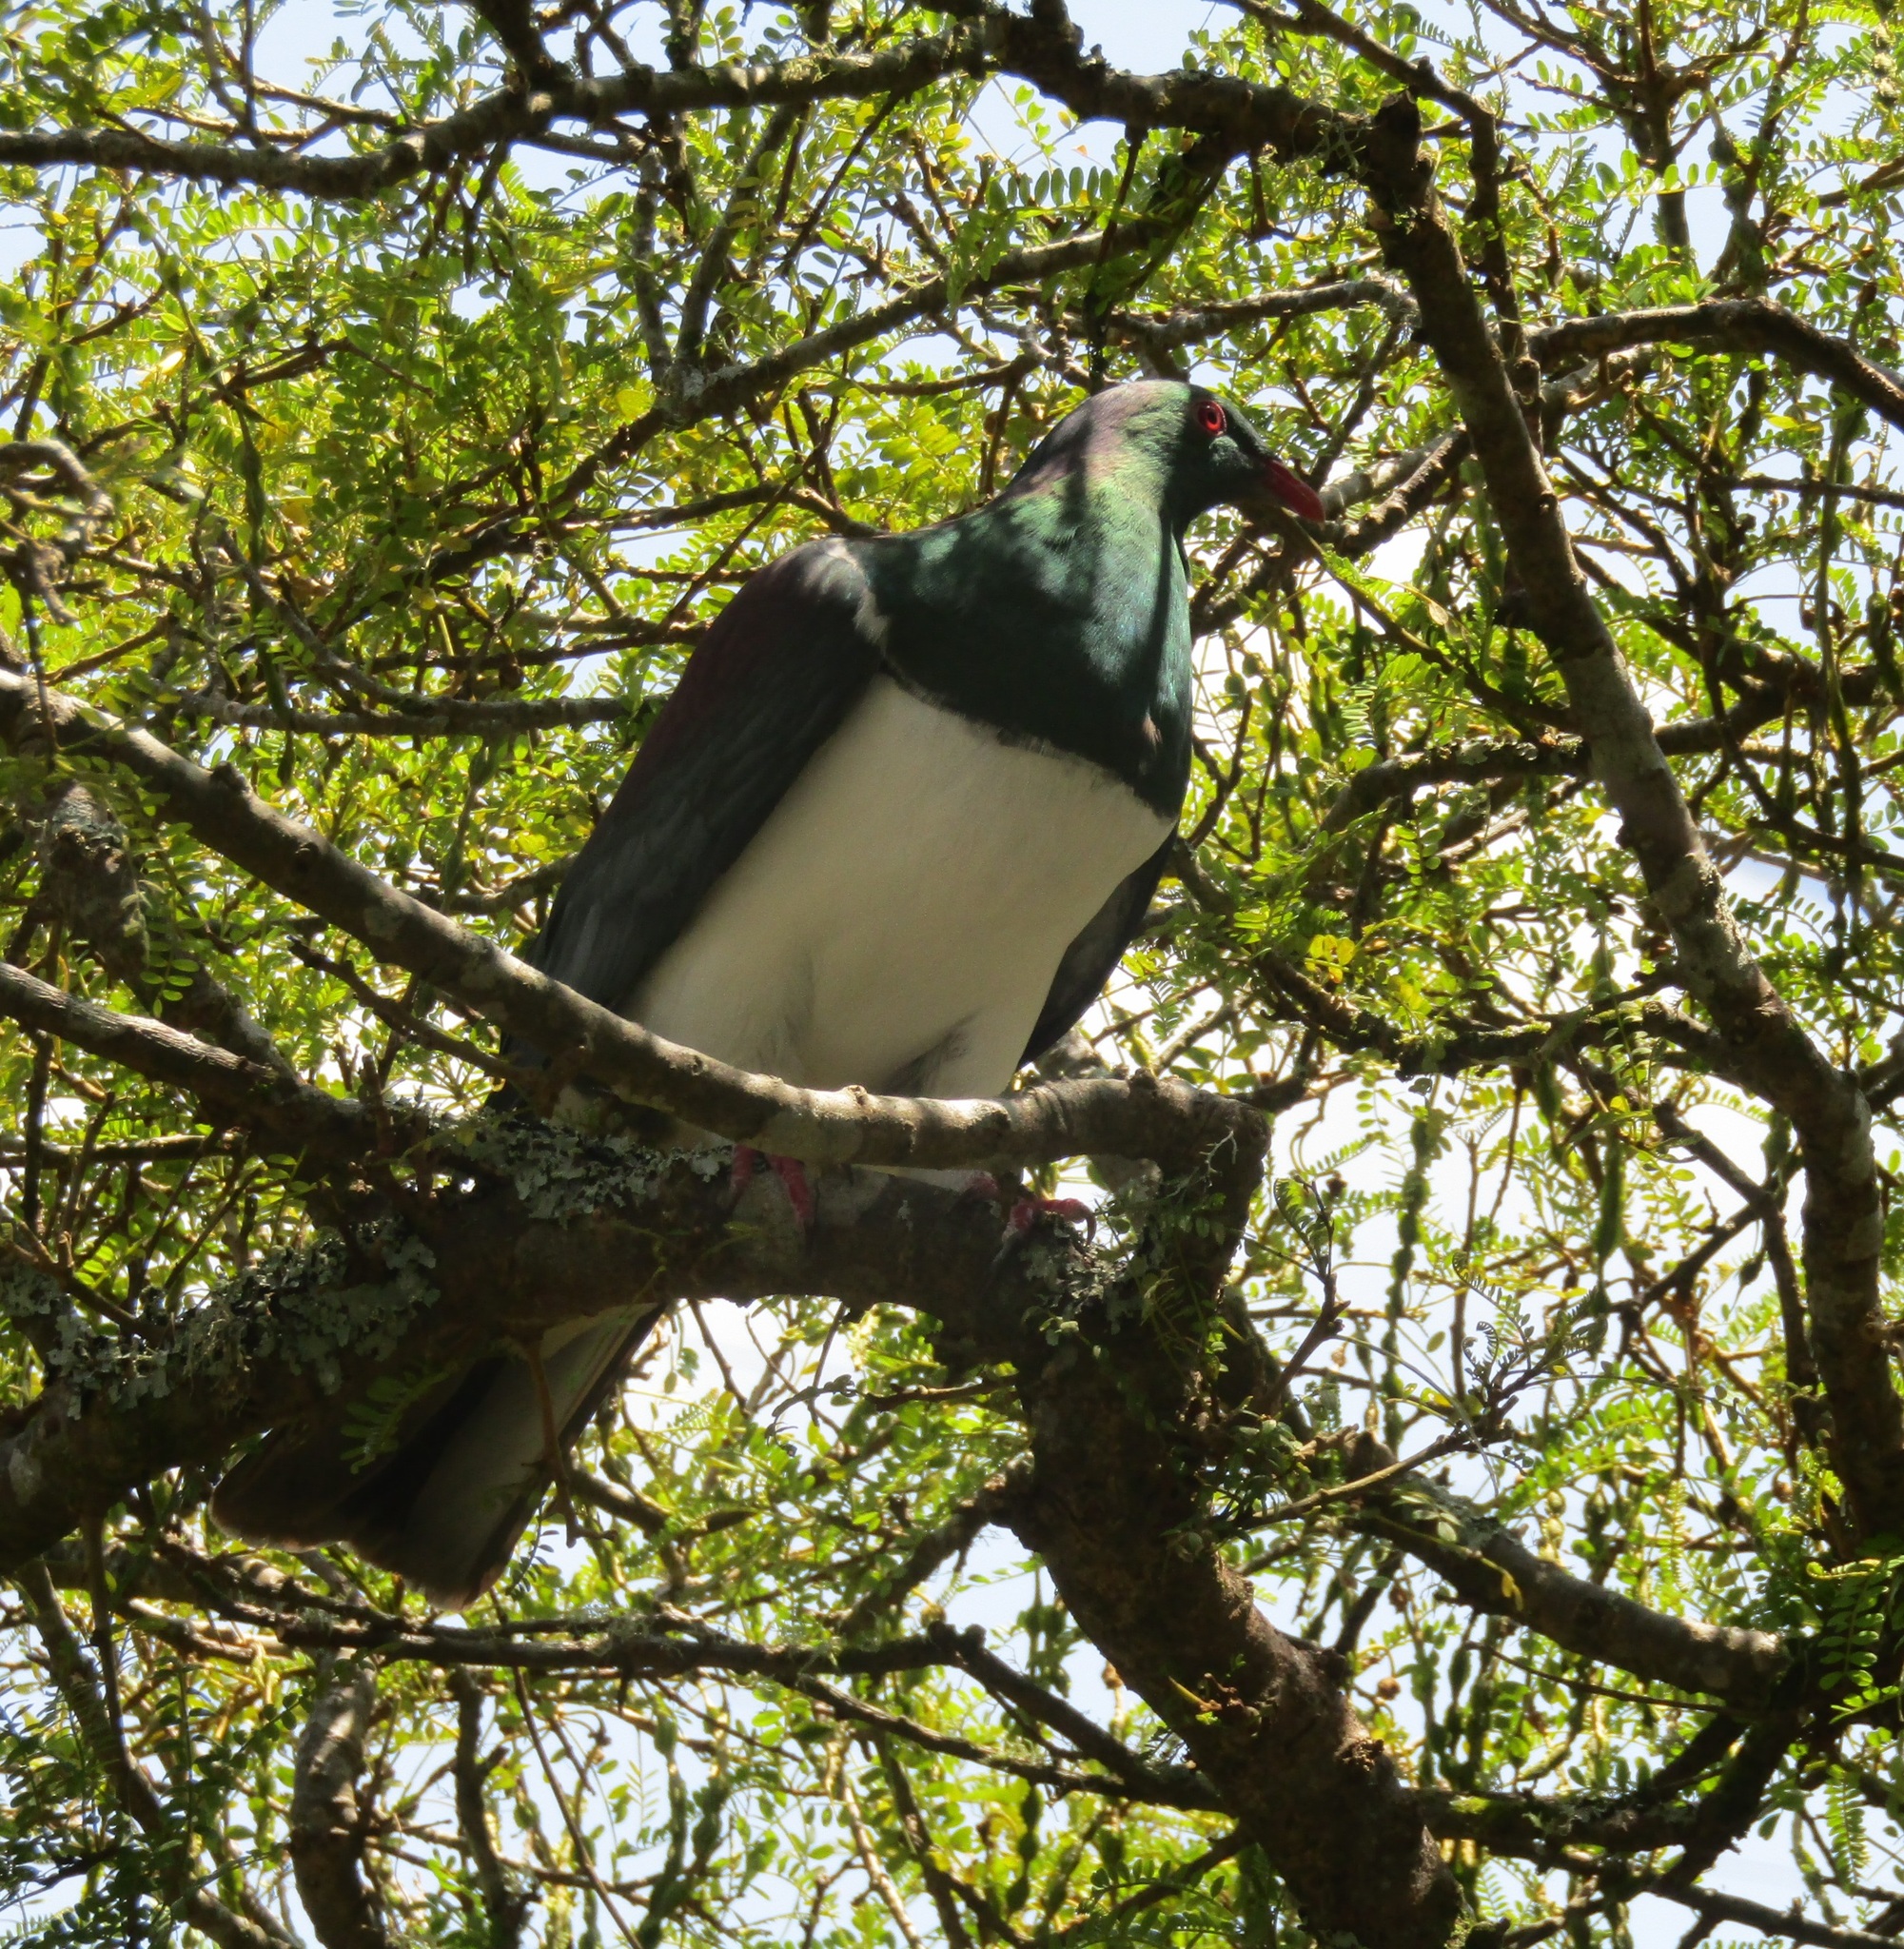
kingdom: Animalia
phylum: Chordata
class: Aves
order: Columbiformes
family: Columbidae
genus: Hemiphaga
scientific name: Hemiphaga novaeseelandiae
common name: New zealand pigeon
